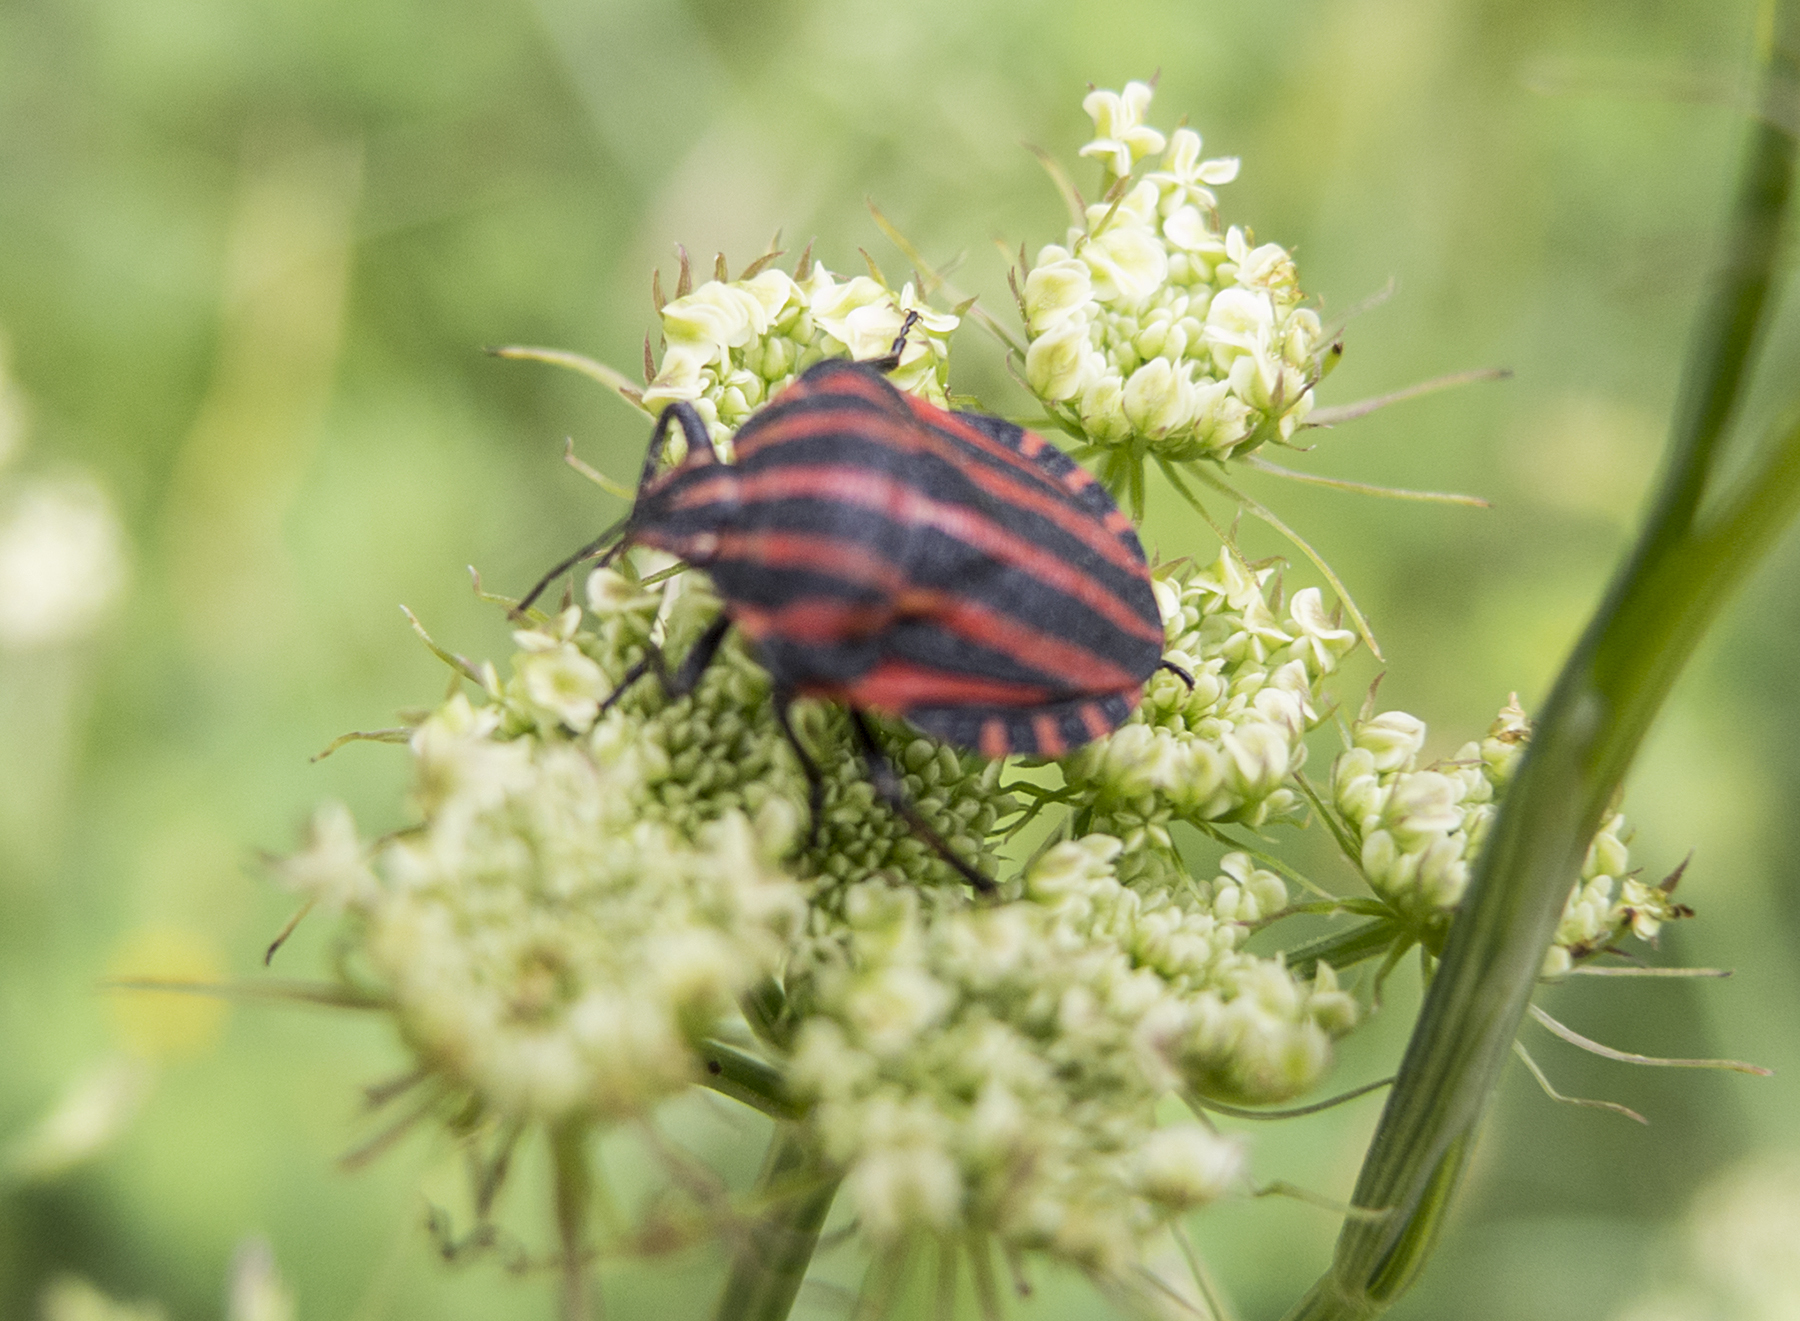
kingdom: Animalia
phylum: Arthropoda
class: Insecta
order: Hemiptera
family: Pentatomidae
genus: Graphosoma
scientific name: Graphosoma italicum
